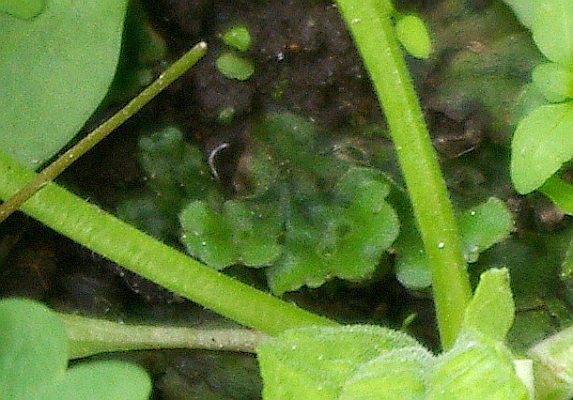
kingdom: Plantae
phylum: Marchantiophyta
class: Marchantiopsida
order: Marchantiales
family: Marchantiaceae
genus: Marchantia
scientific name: Marchantia polymorpha
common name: Common liverwort
